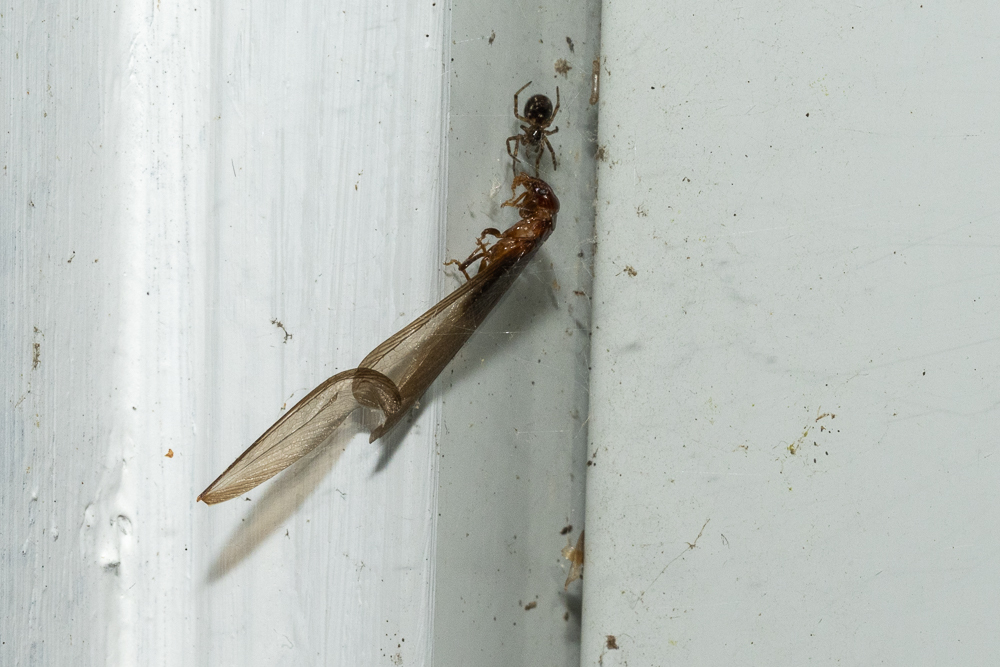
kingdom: Animalia
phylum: Arthropoda
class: Insecta
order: Hymenoptera
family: Formicidae
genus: Camponotus
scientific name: Camponotus vicinus
